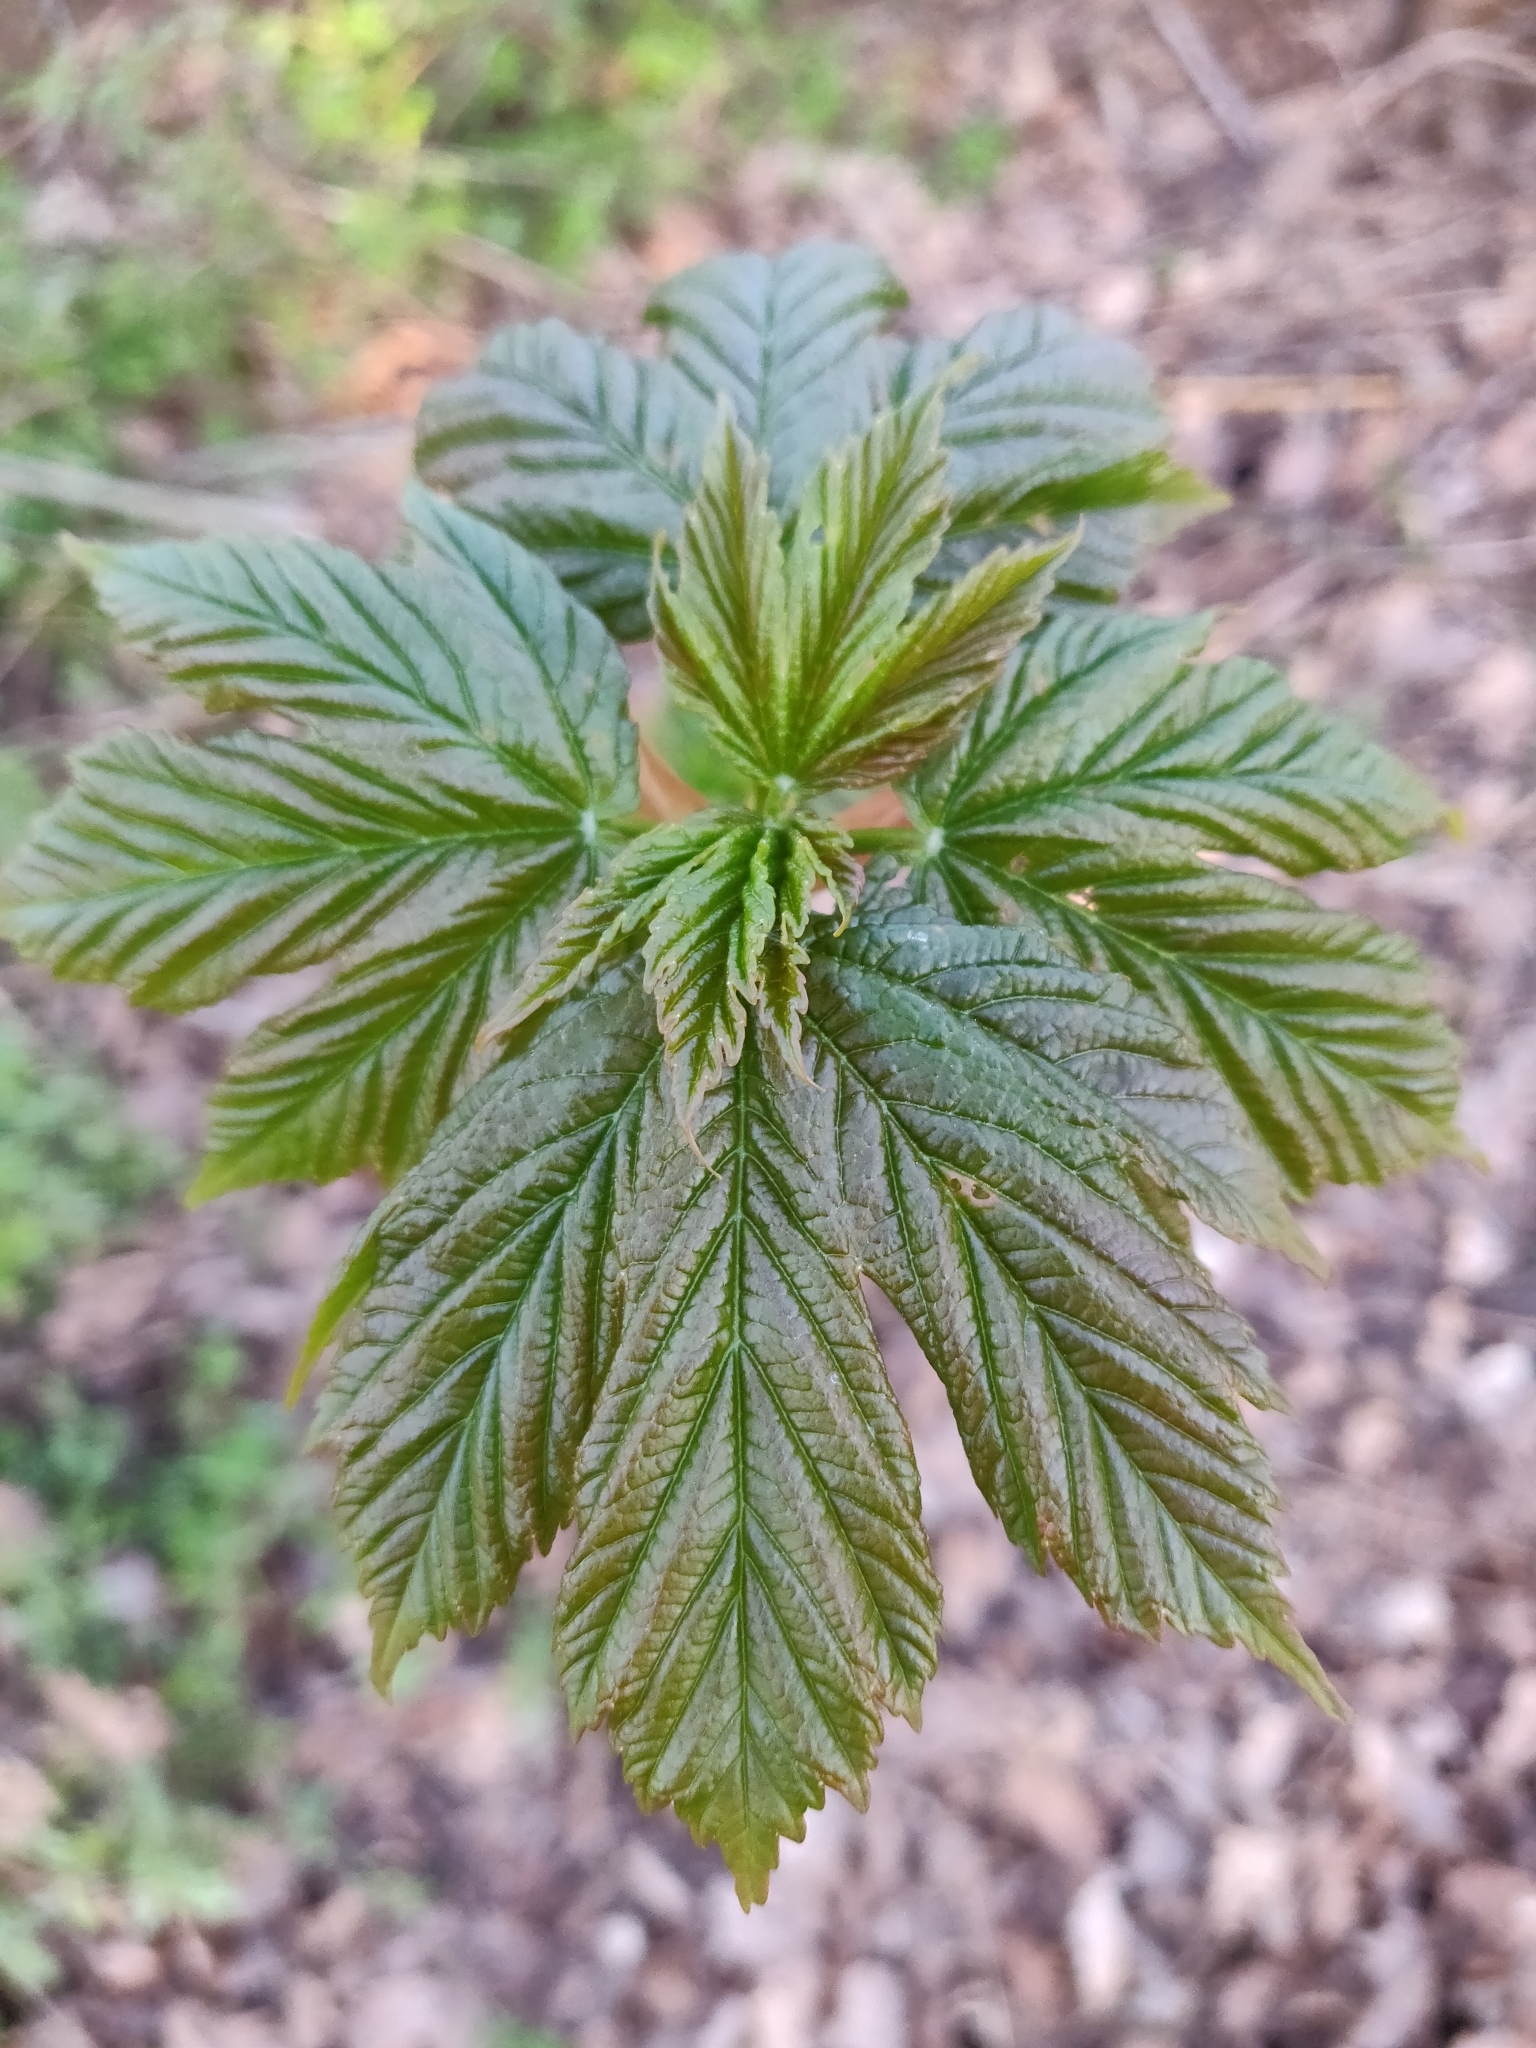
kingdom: Plantae
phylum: Tracheophyta
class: Magnoliopsida
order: Sapindales
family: Sapindaceae
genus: Acer
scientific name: Acer pseudoplatanus
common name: Sycamore
